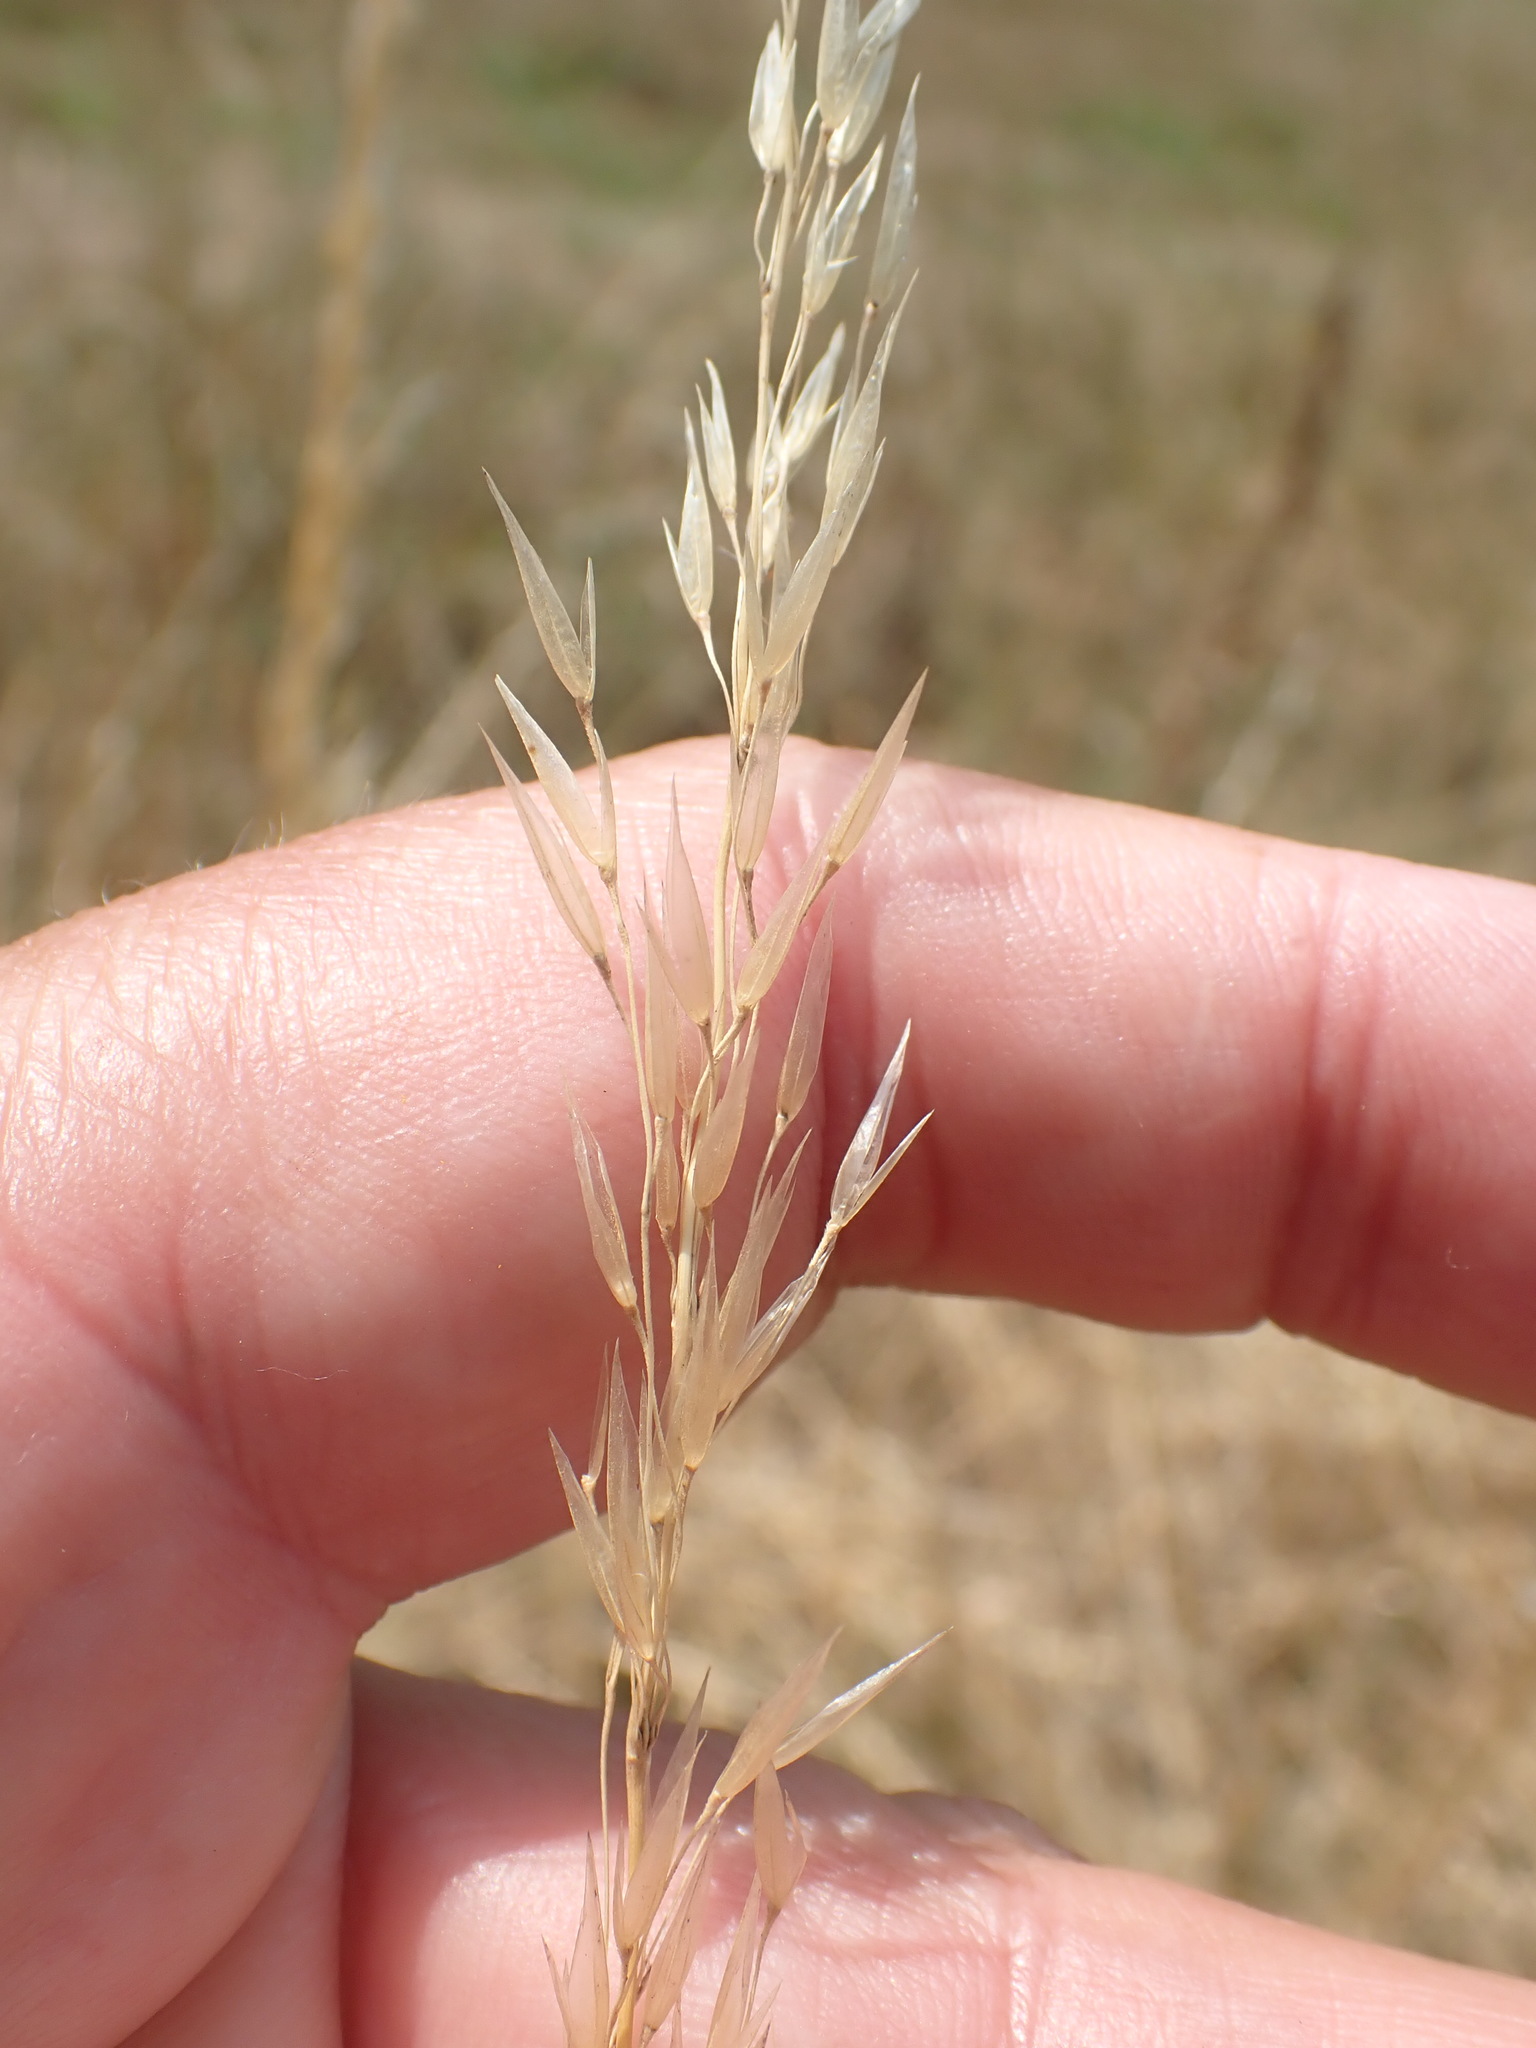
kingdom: Plantae
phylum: Tracheophyta
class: Liliopsida
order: Poales
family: Poaceae
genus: Arrhenatherum
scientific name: Arrhenatherum elatius
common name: Tall oatgrass
